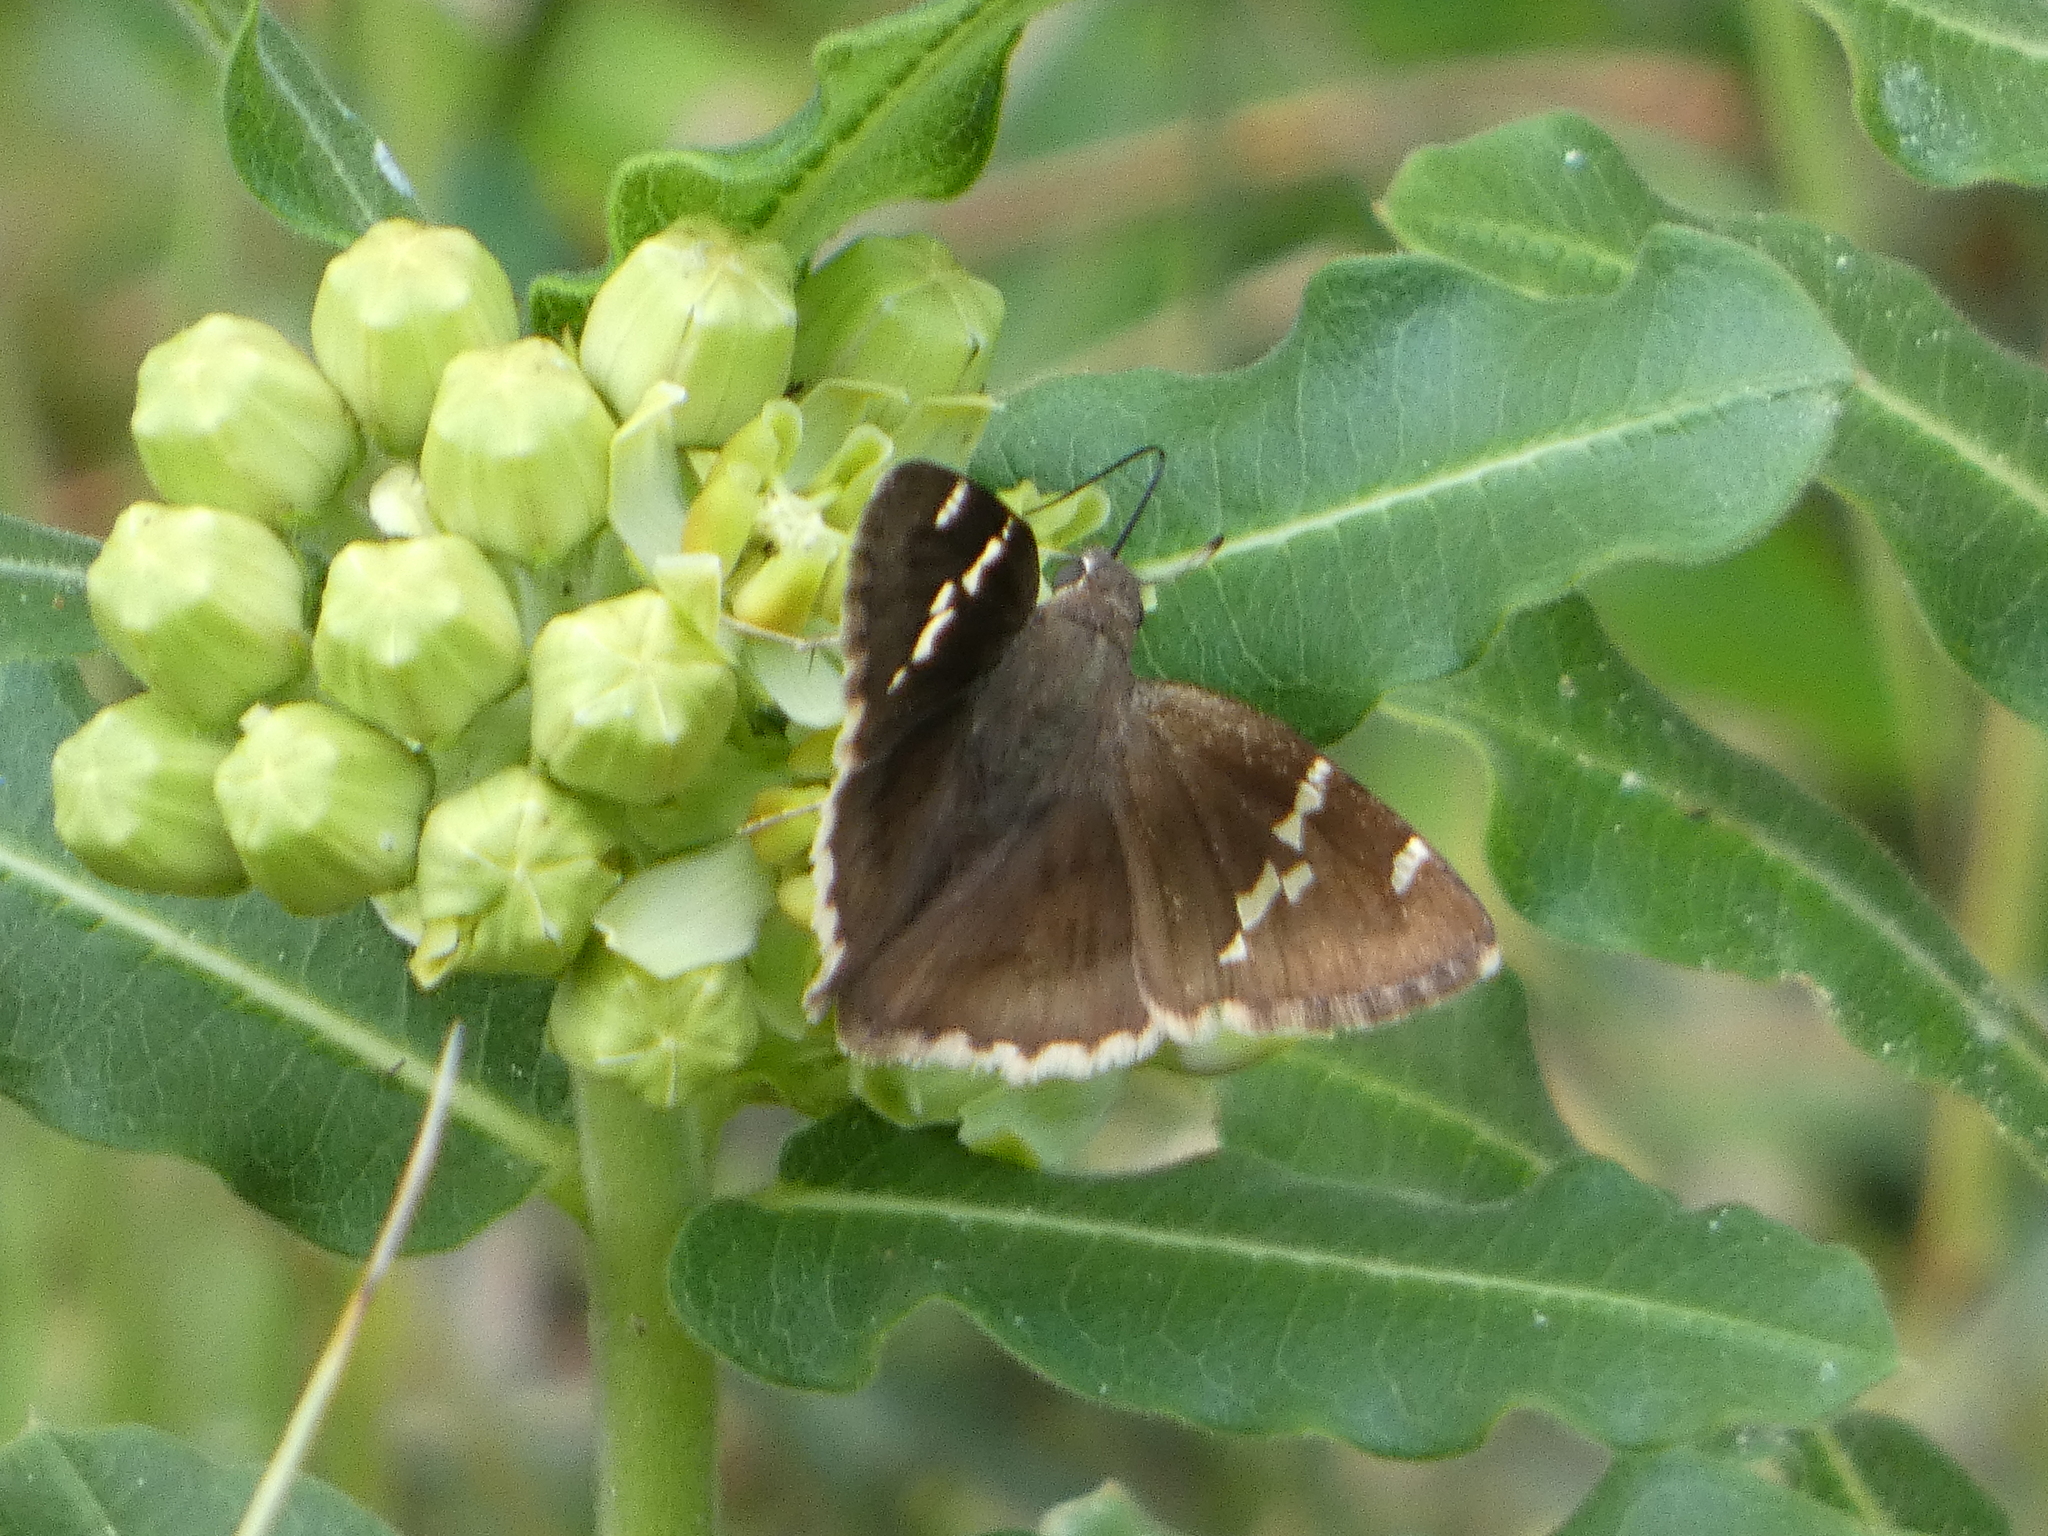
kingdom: Animalia
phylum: Arthropoda
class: Insecta
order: Lepidoptera
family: Hesperiidae
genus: Thorybes
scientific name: Thorybes daunus
